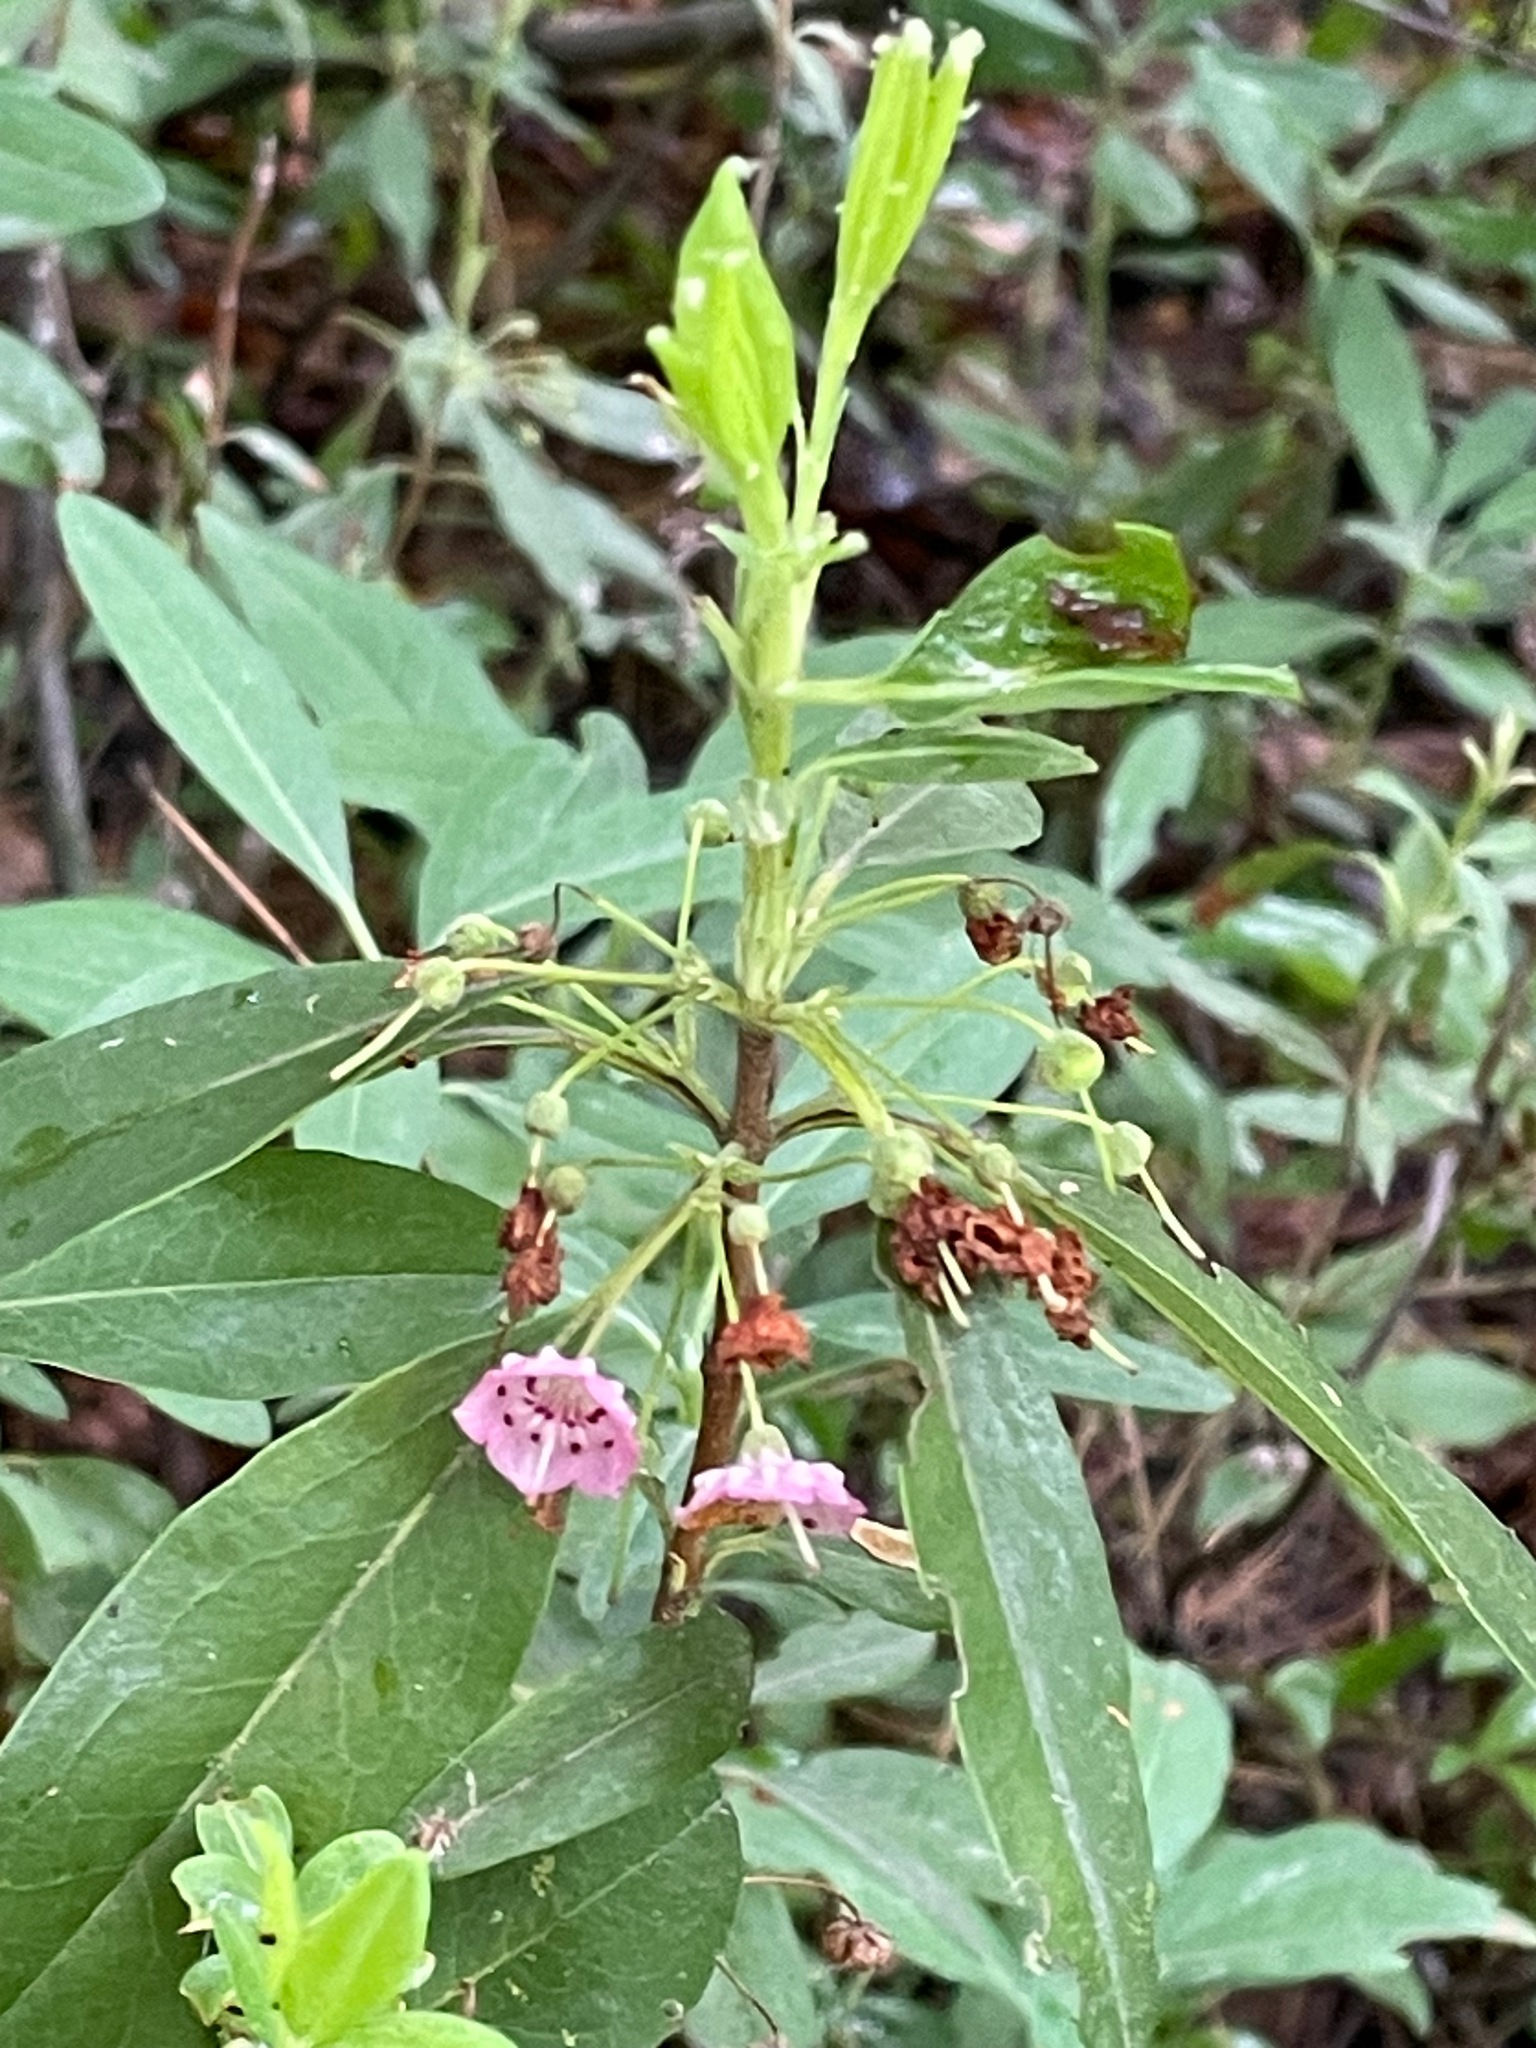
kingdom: Plantae
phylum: Tracheophyta
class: Magnoliopsida
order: Ericales
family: Ericaceae
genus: Kalmia
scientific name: Kalmia angustifolia
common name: Sheep-laurel
